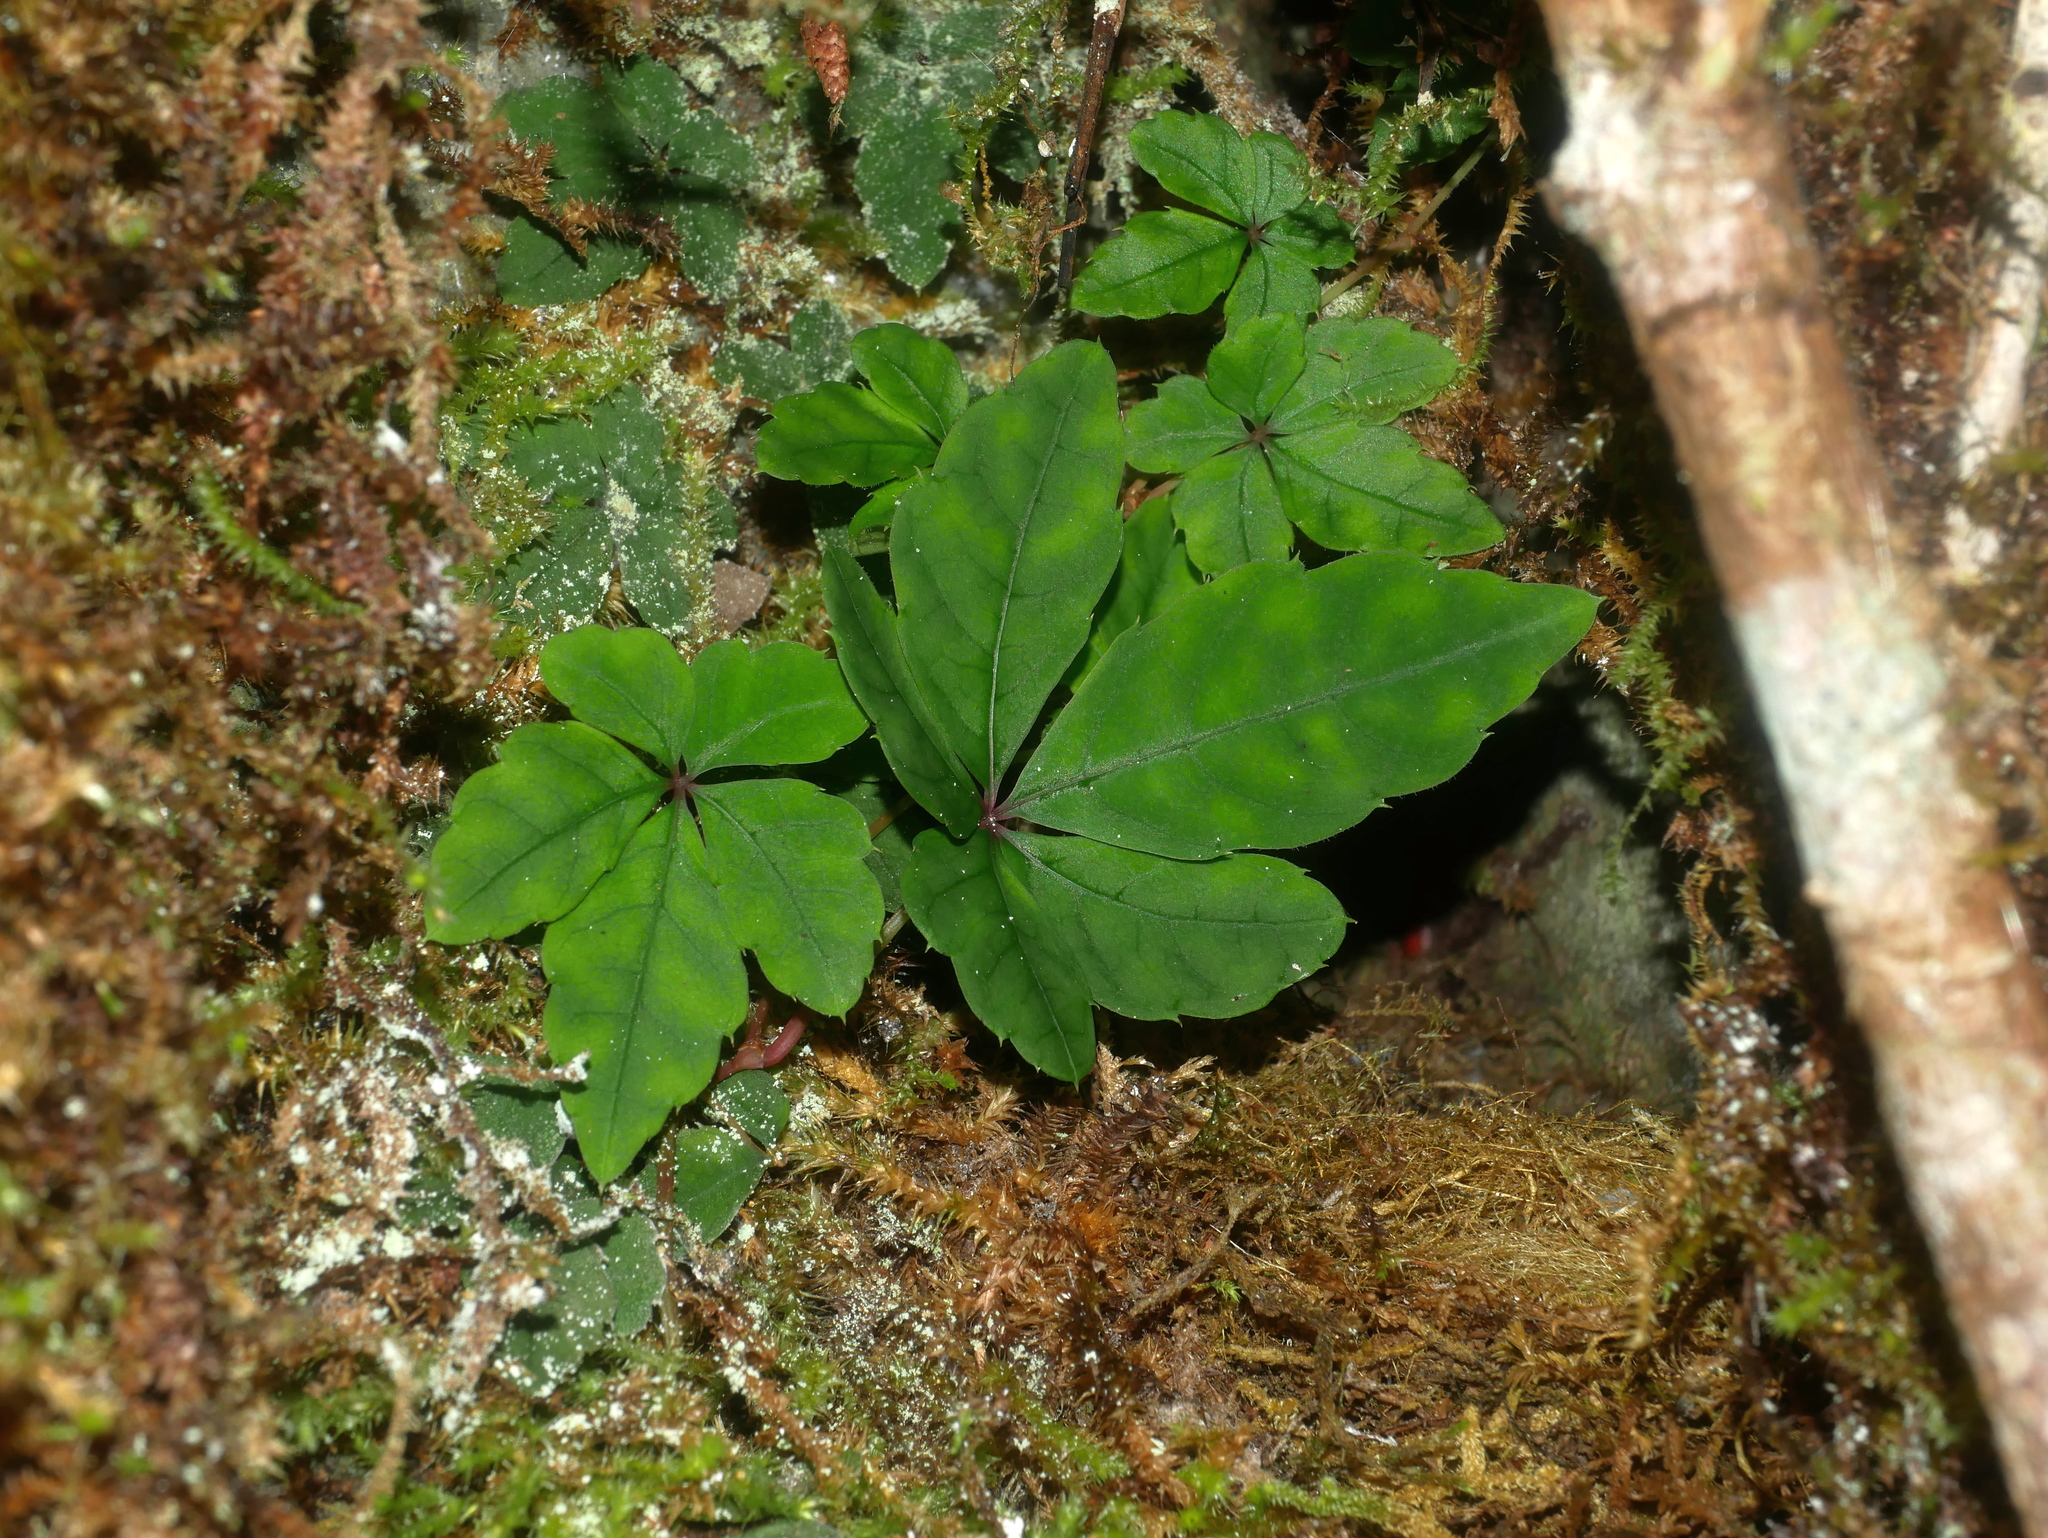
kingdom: Plantae
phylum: Tracheophyta
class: Magnoliopsida
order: Vitales
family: Vitaceae
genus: Tetrastigma
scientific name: Tetrastigma obtectum
